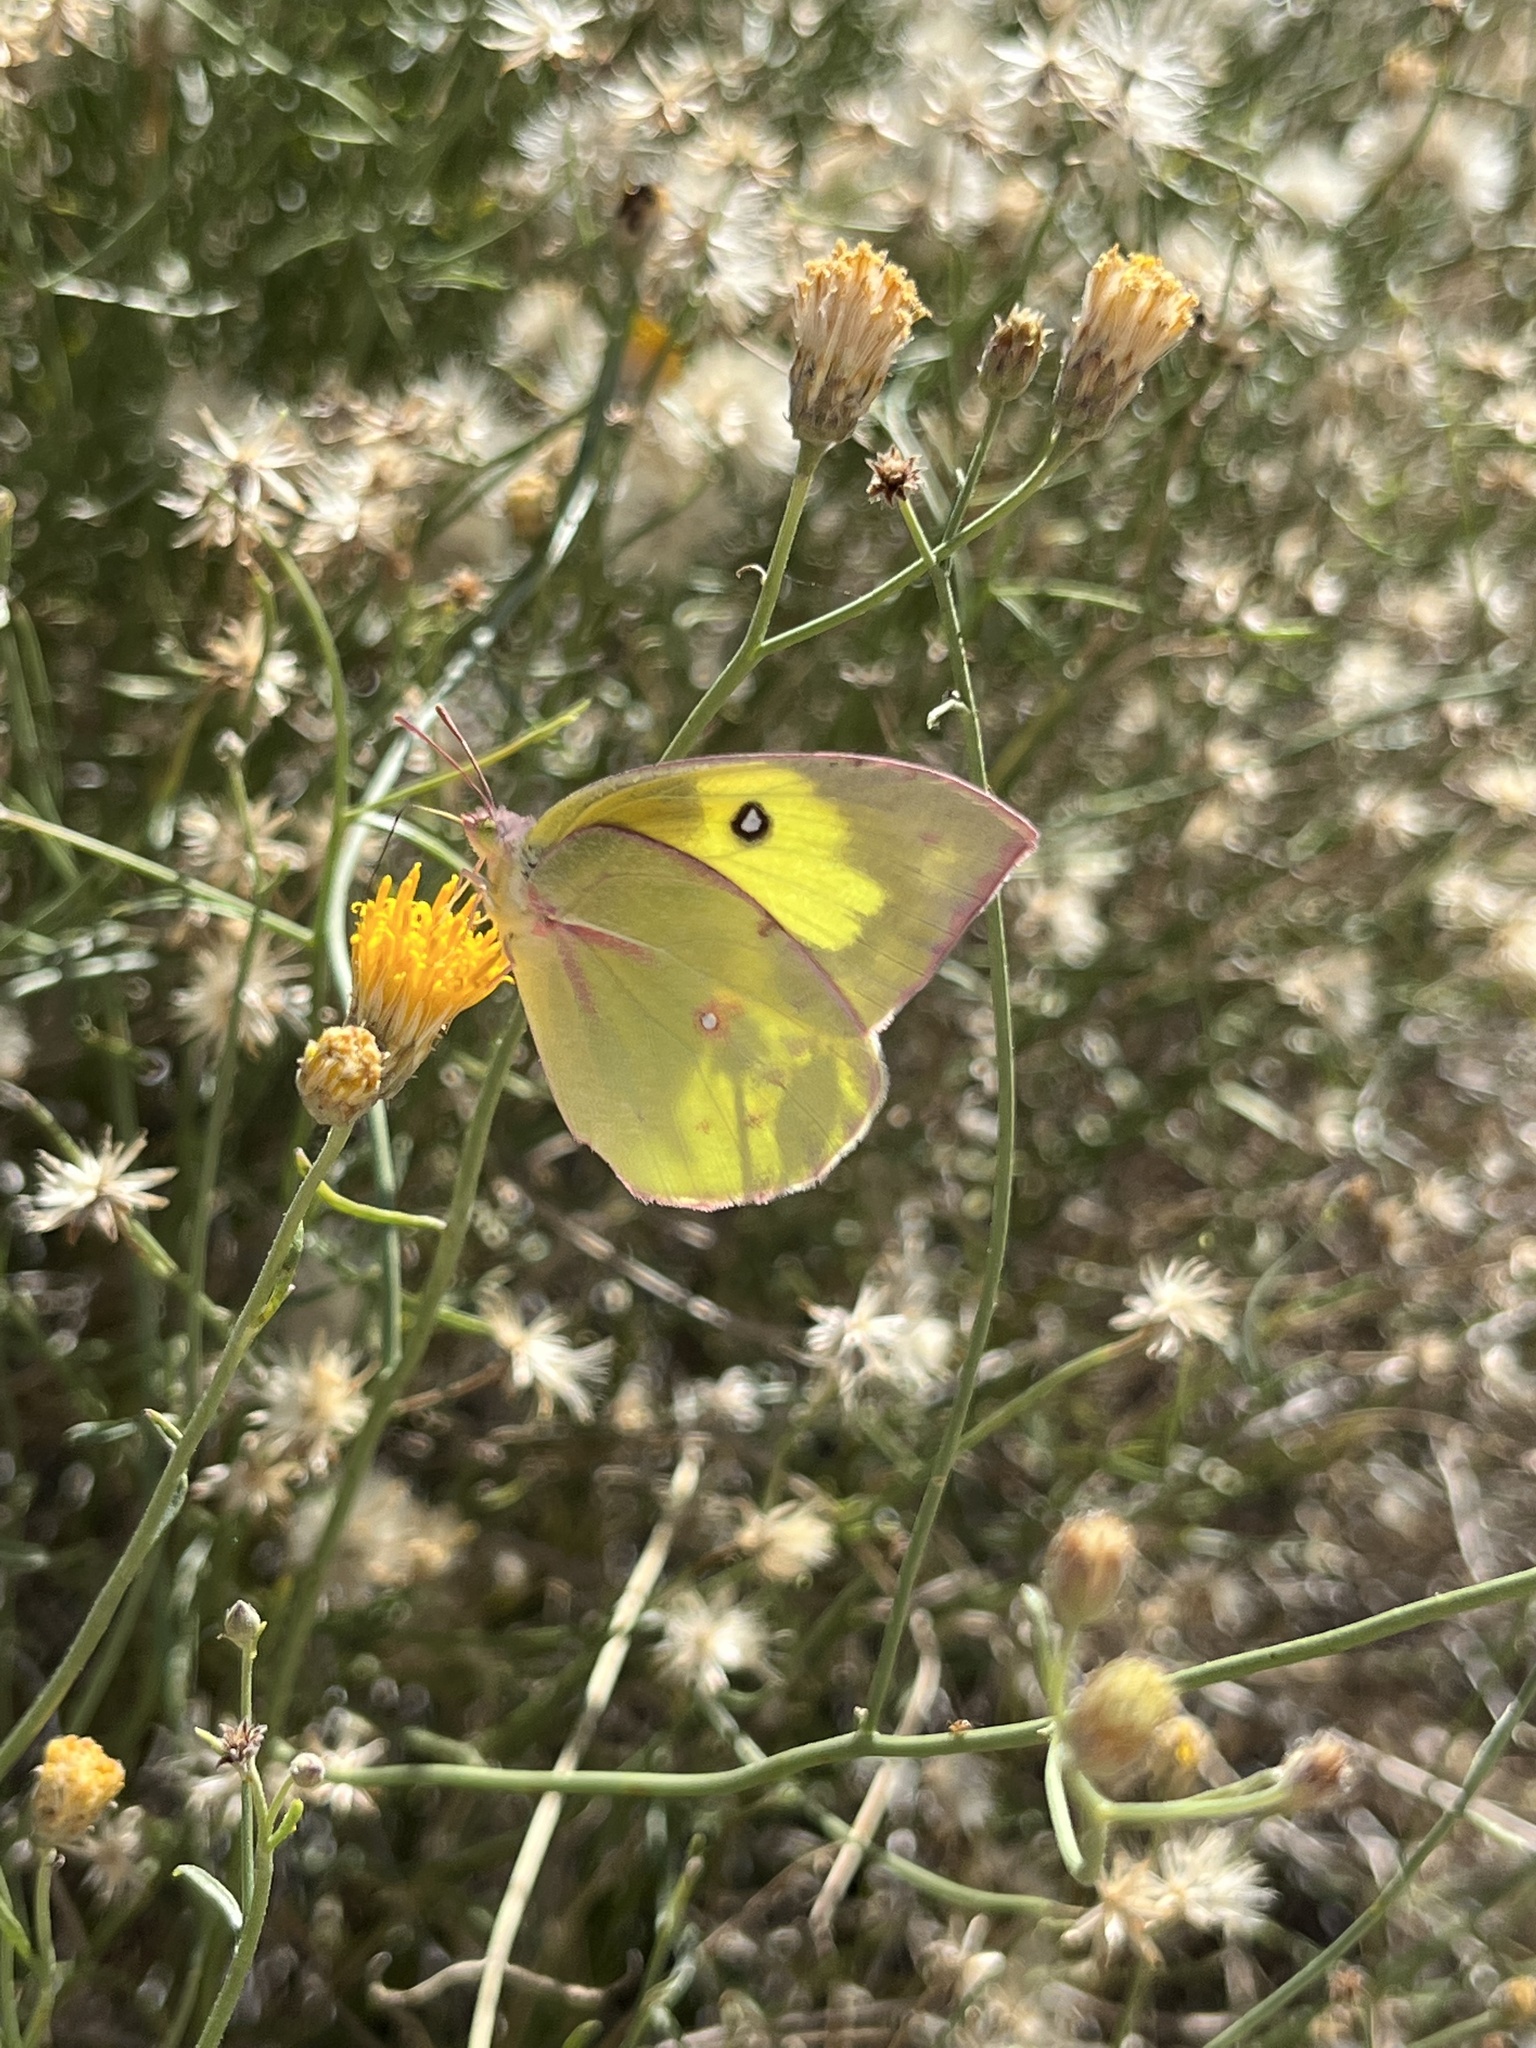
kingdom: Animalia
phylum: Arthropoda
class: Insecta
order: Lepidoptera
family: Pieridae
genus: Zerene
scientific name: Zerene cesonia
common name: Southern dogface
